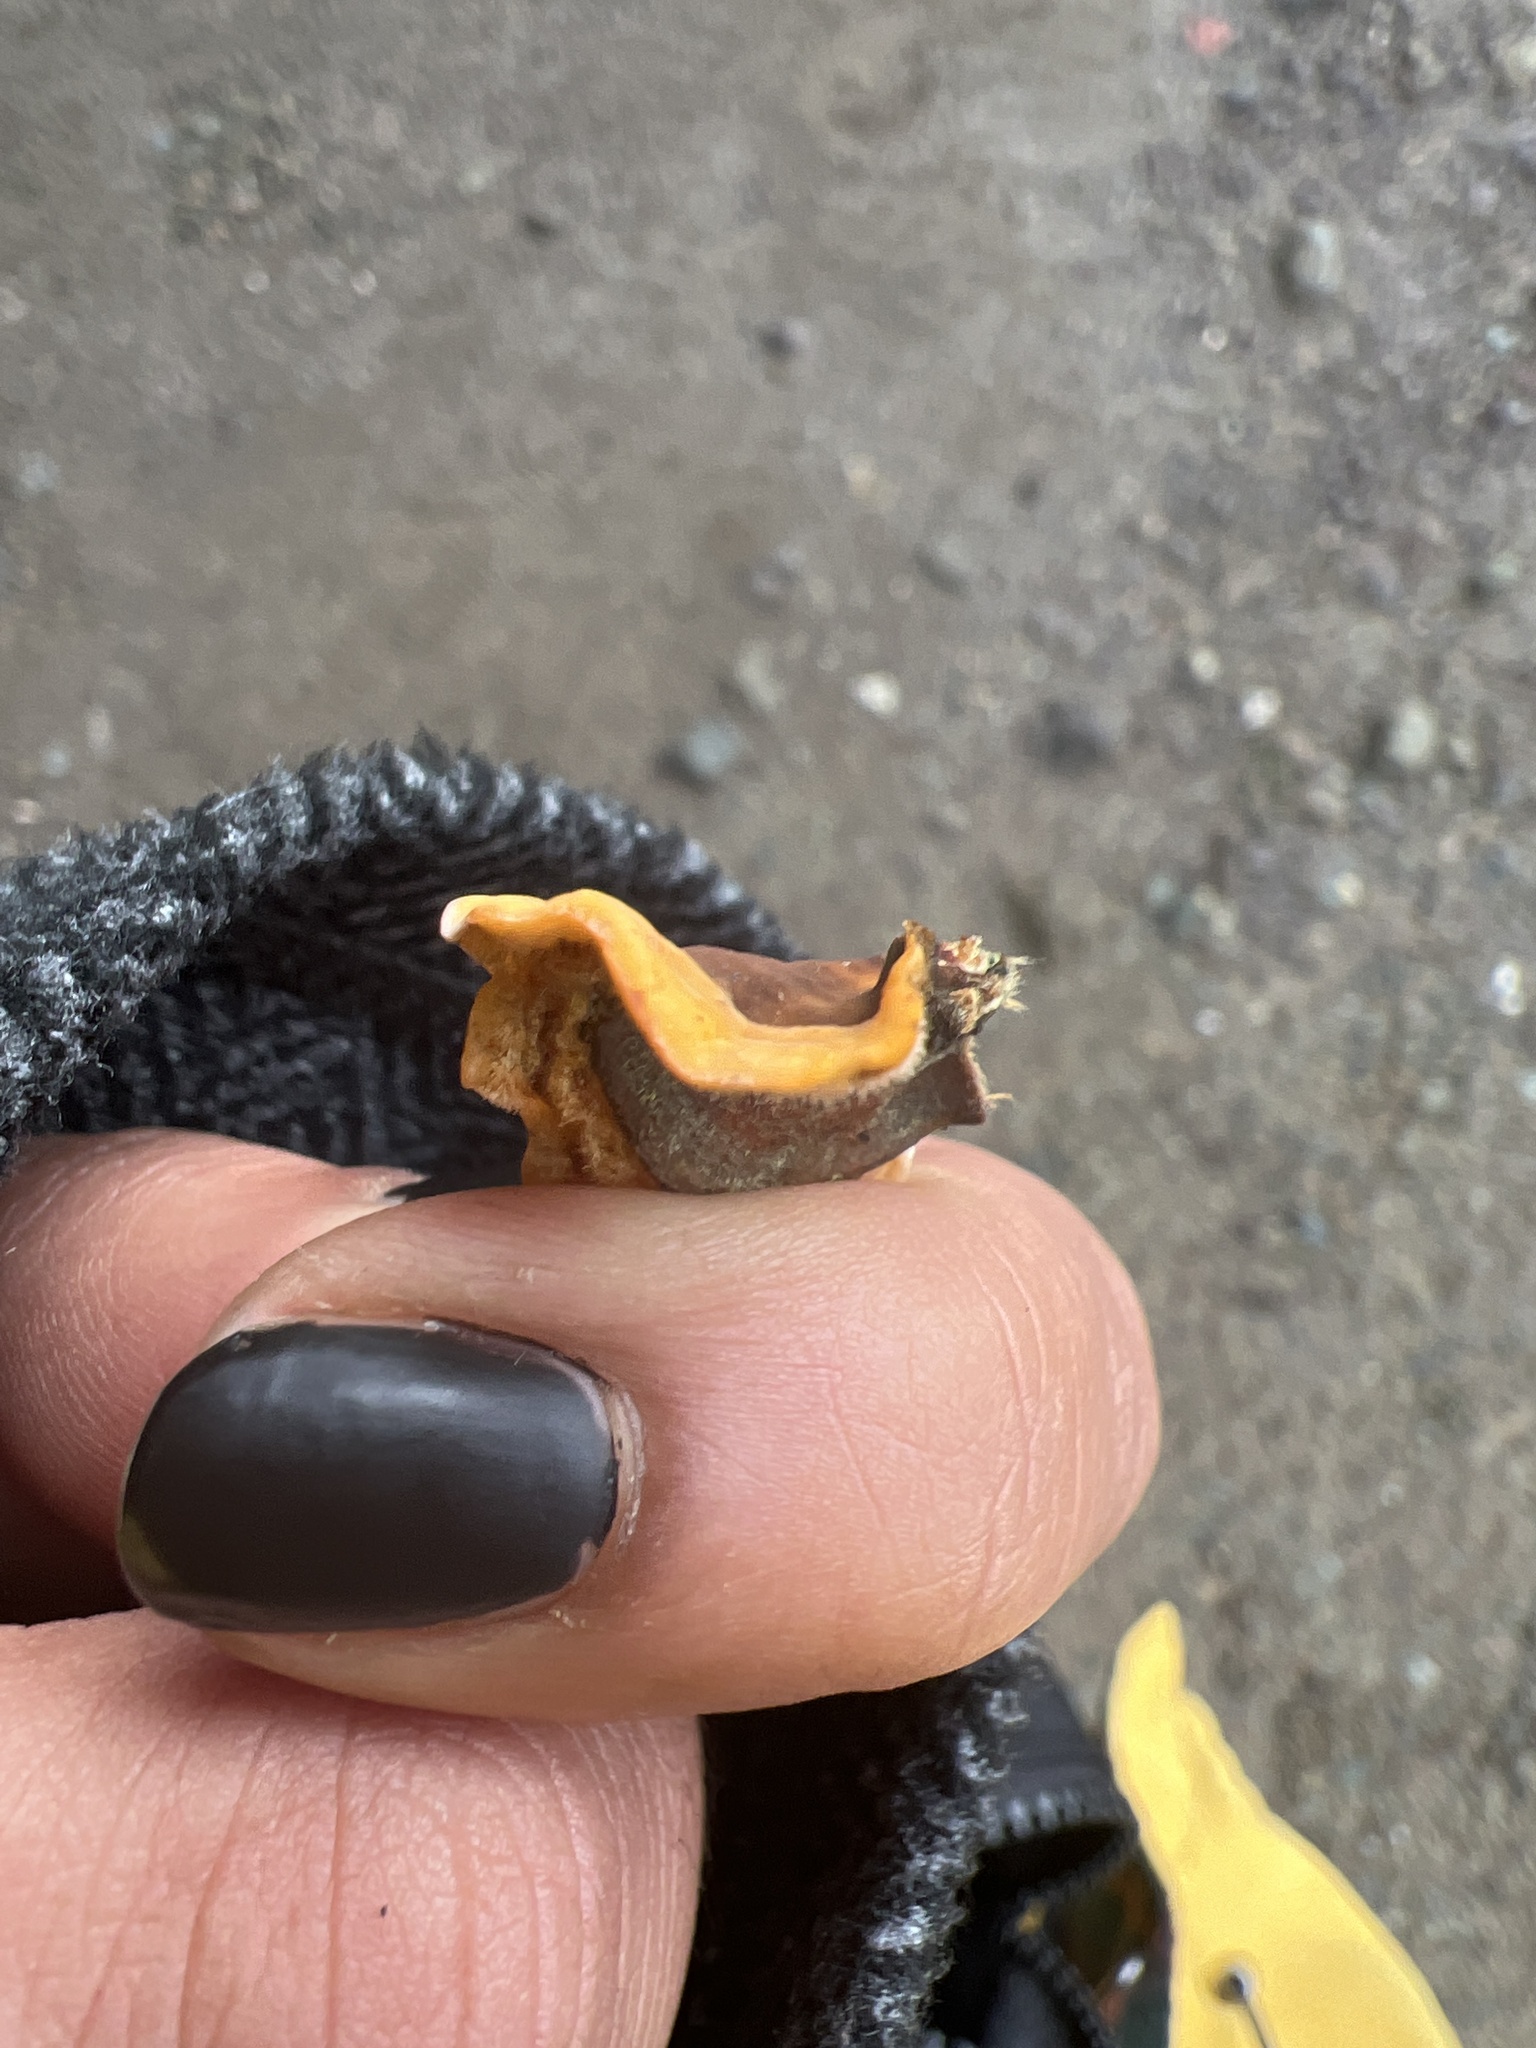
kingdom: Fungi
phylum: Basidiomycota
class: Agaricomycetes
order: Russulales
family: Stereaceae
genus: Stereum
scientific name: Stereum hirsutum
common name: Hairy curtain crust
